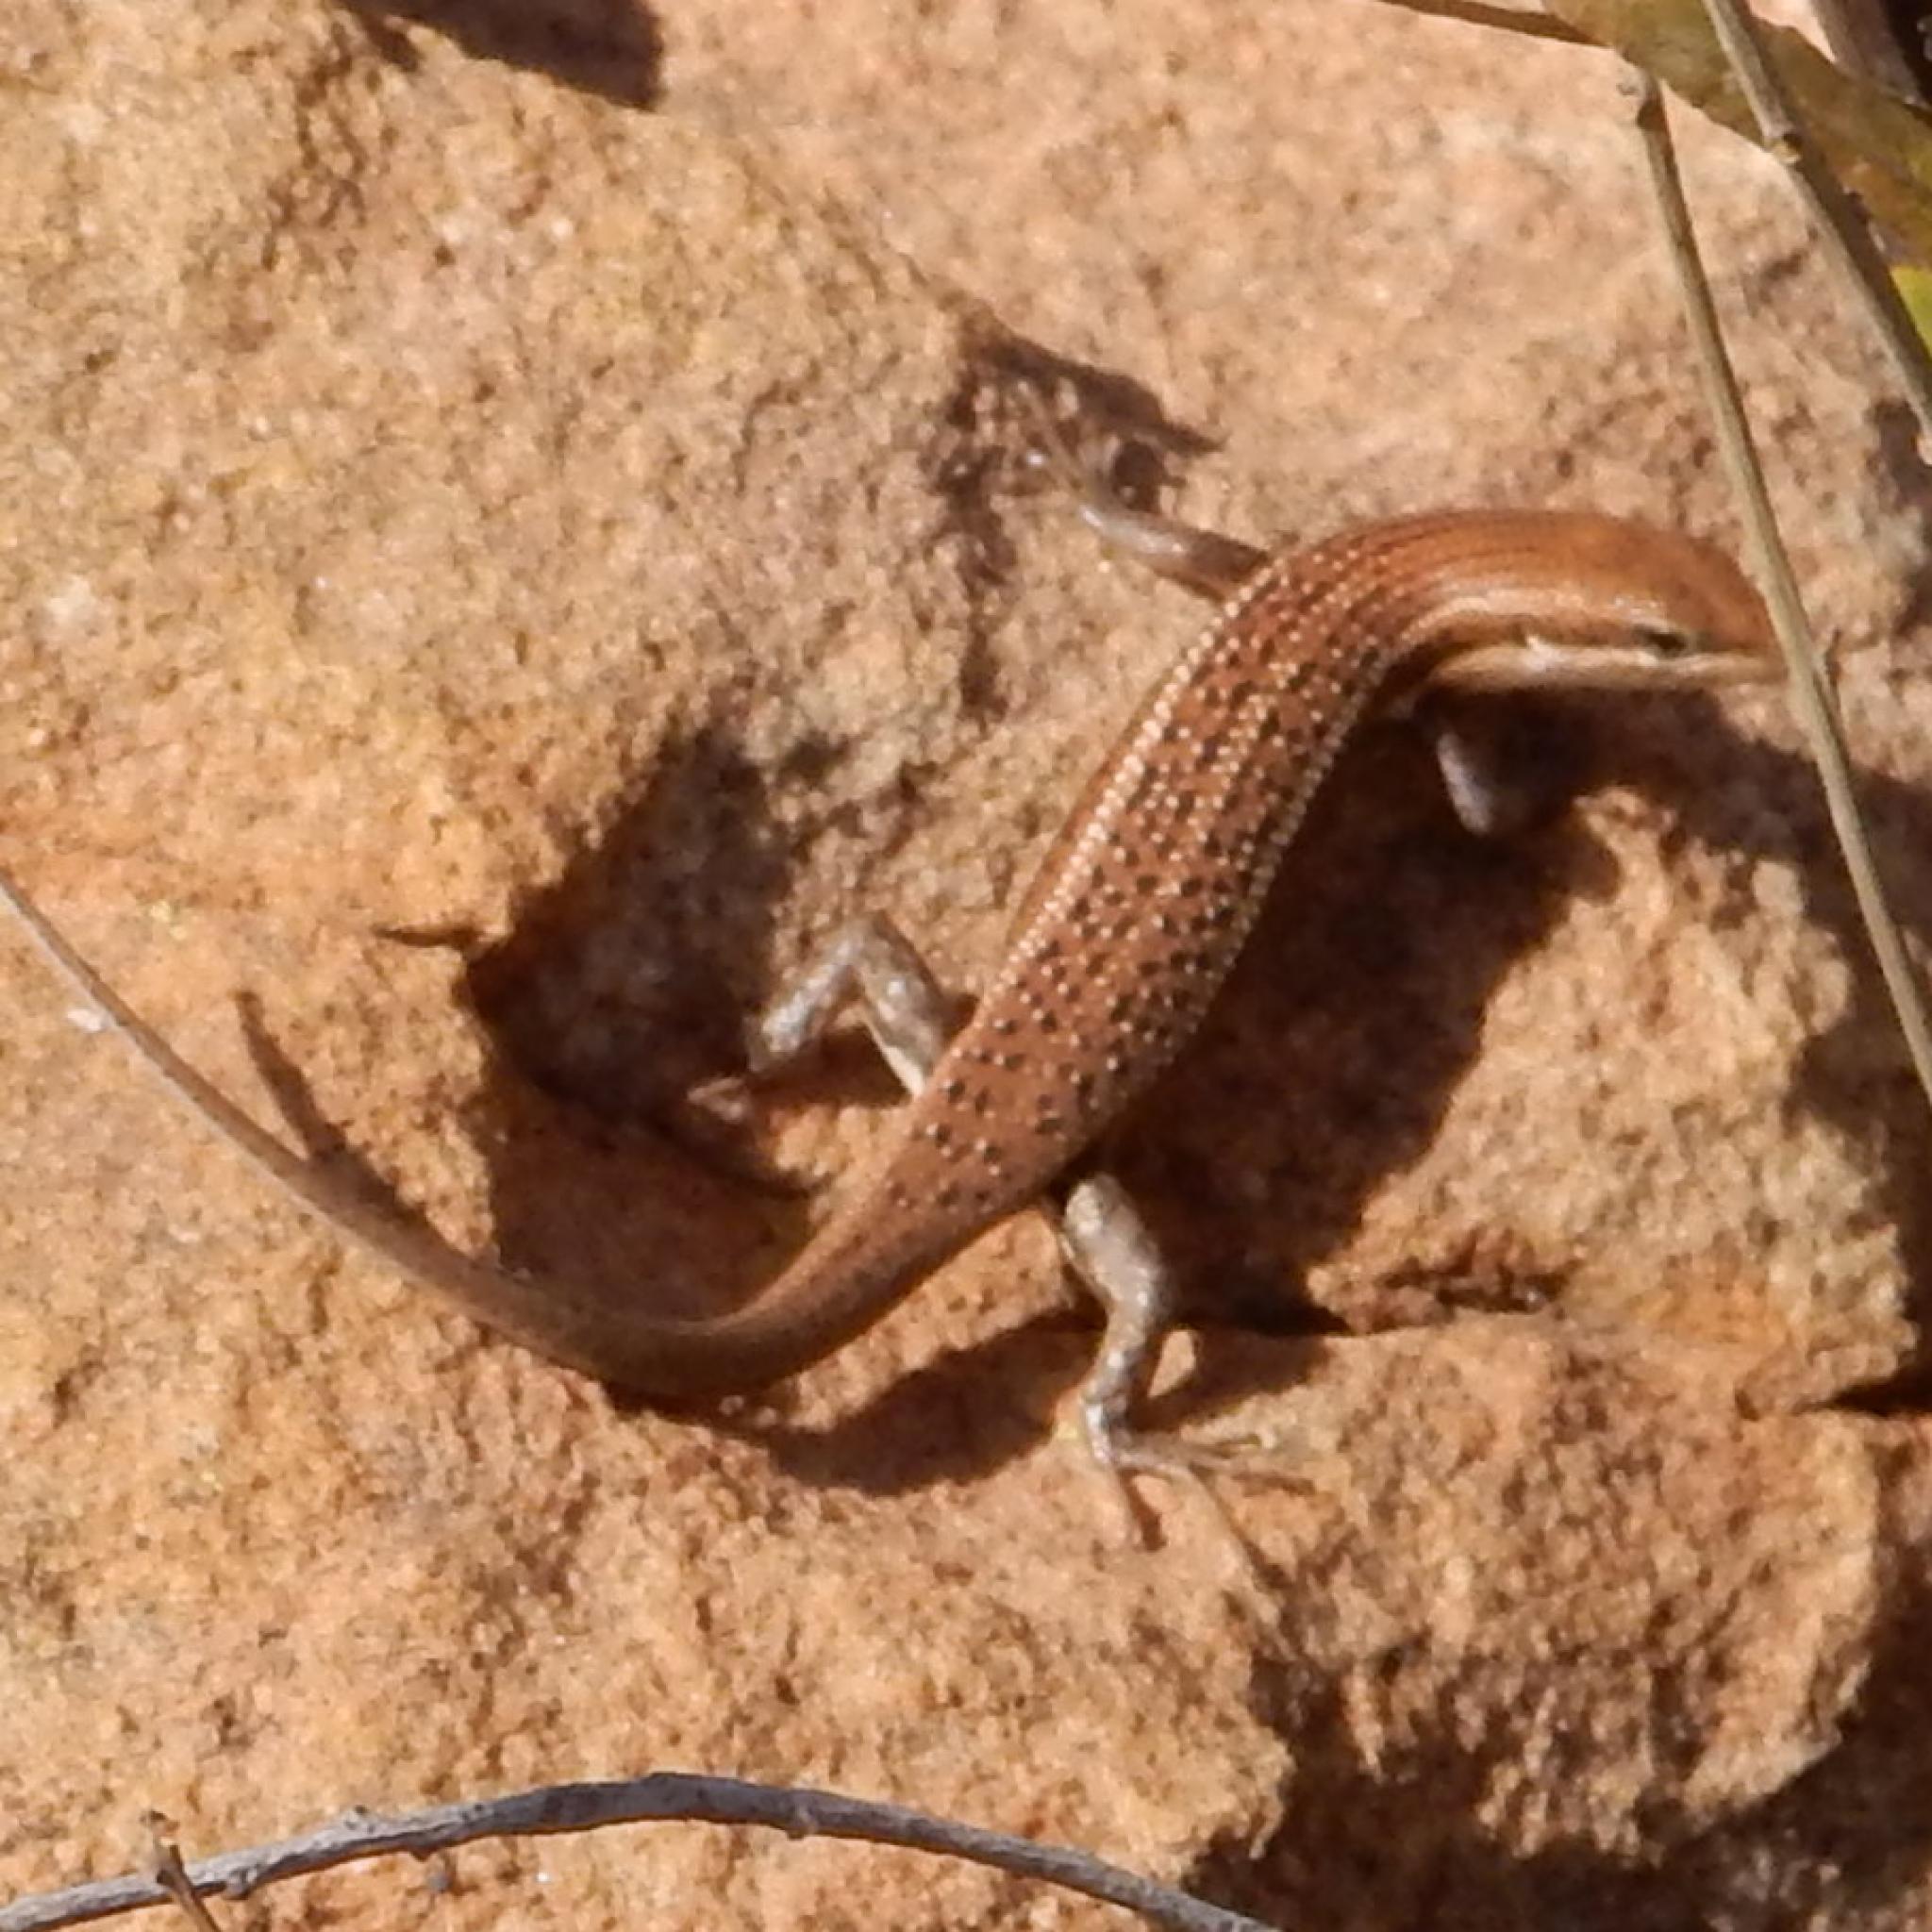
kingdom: Animalia
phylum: Chordata
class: Squamata
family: Scincidae
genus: Trachylepis
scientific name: Trachylepis varia
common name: Eastern variable skink
